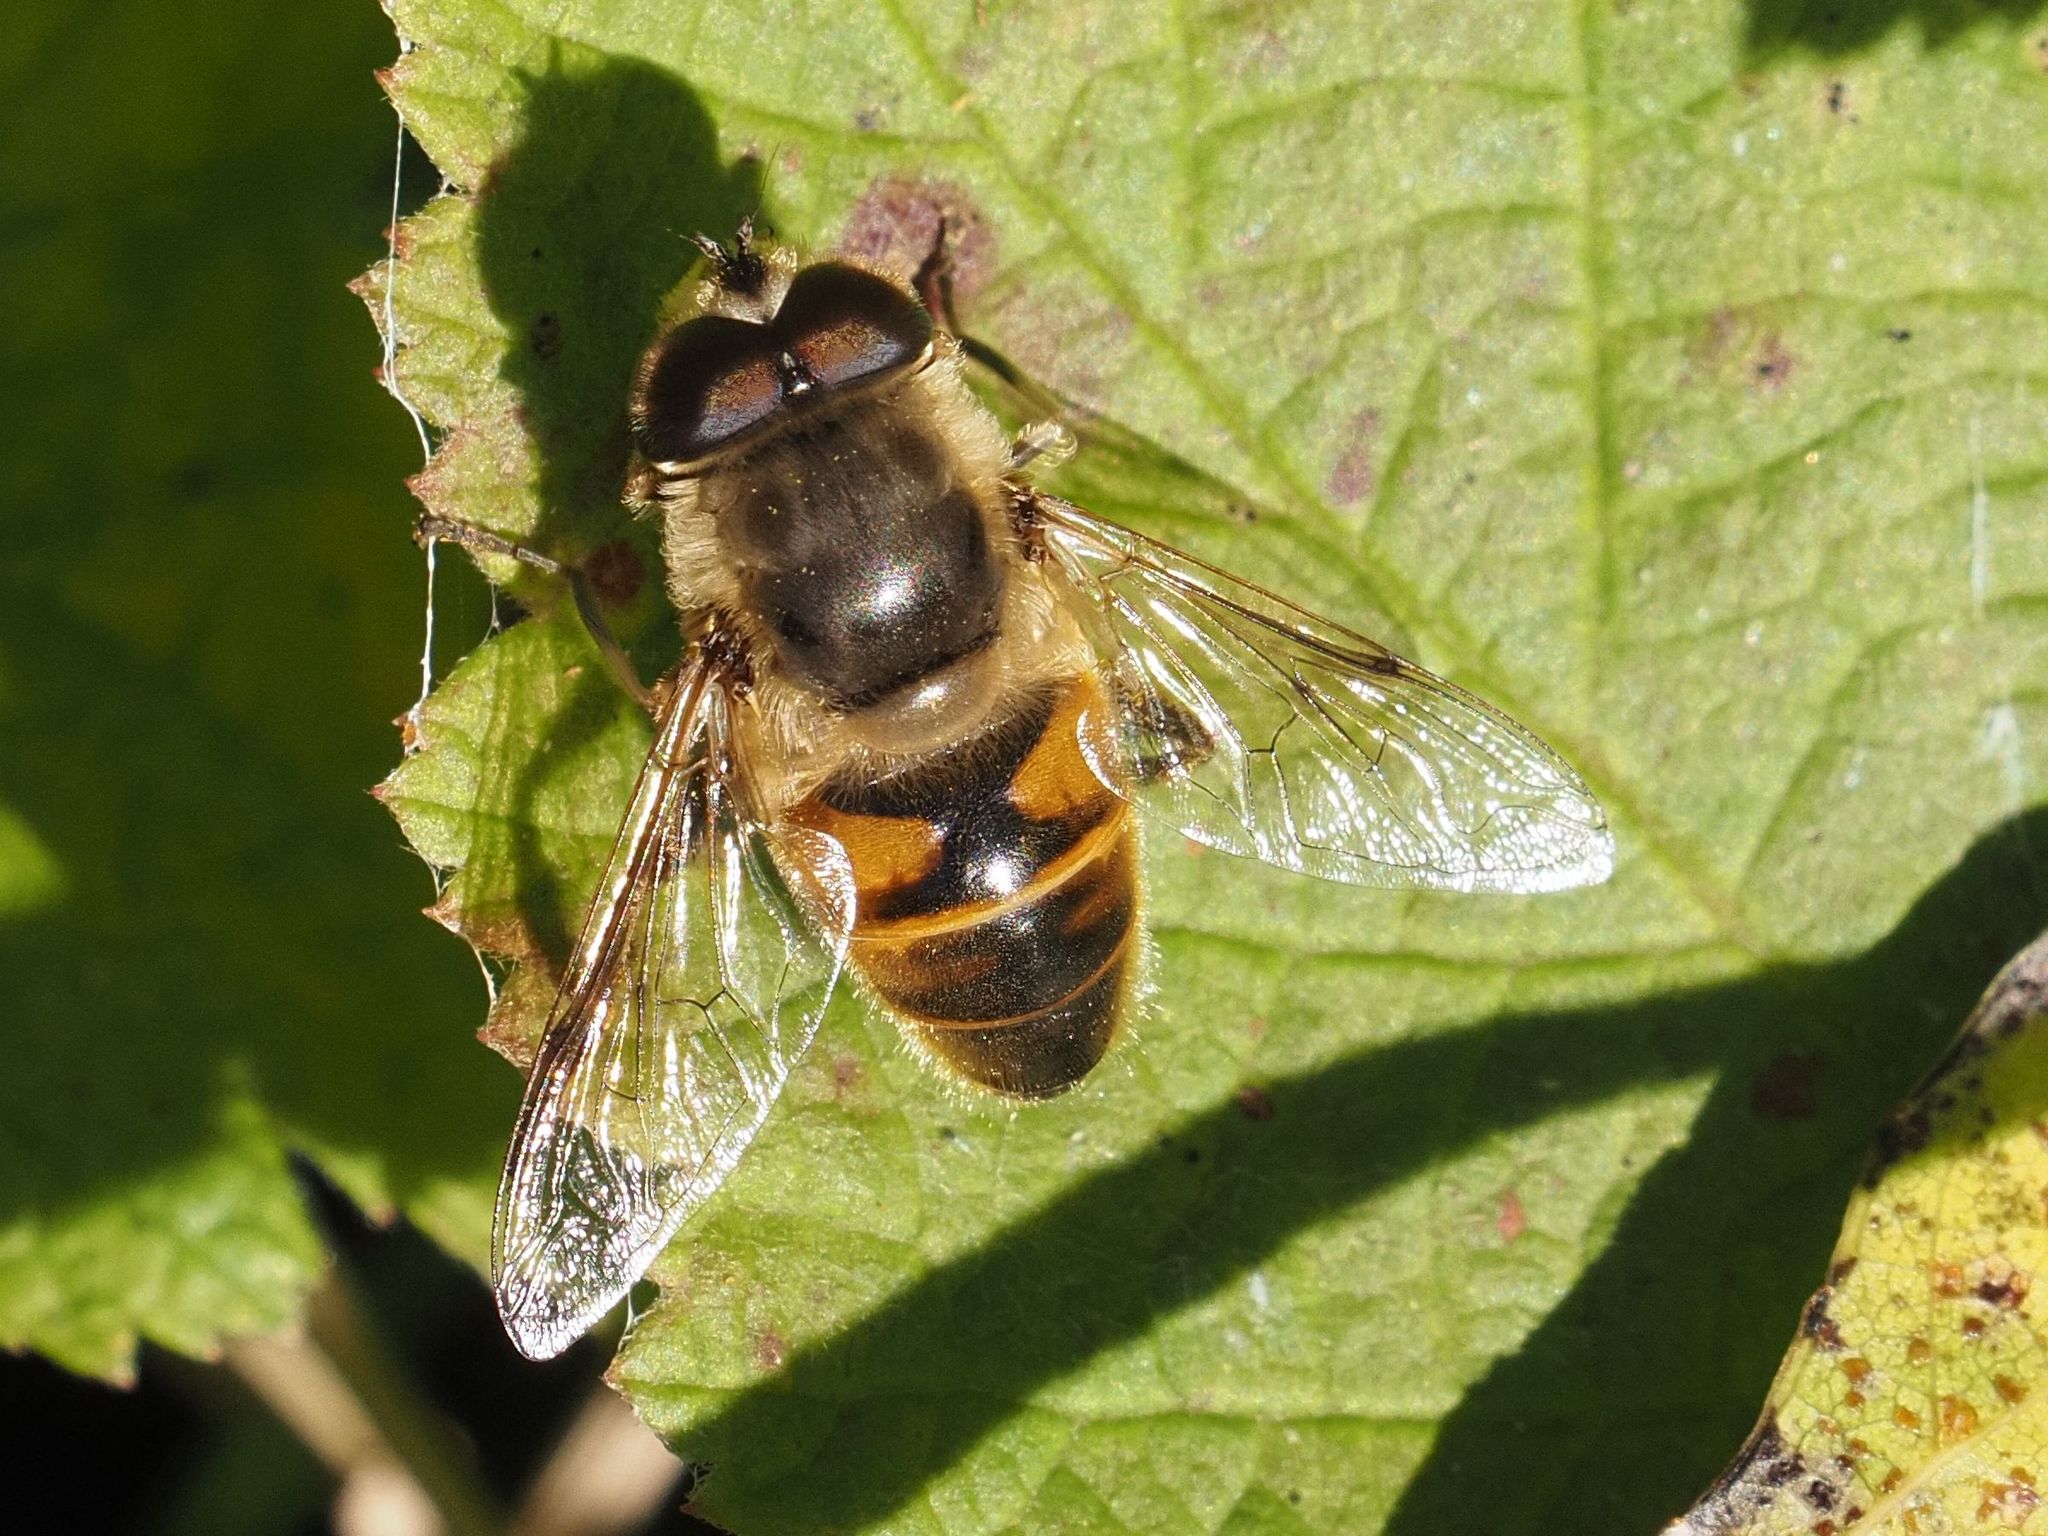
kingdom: Animalia
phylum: Arthropoda
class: Insecta
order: Diptera
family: Syrphidae
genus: Eristalis
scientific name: Eristalis tenax
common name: Drone fly
